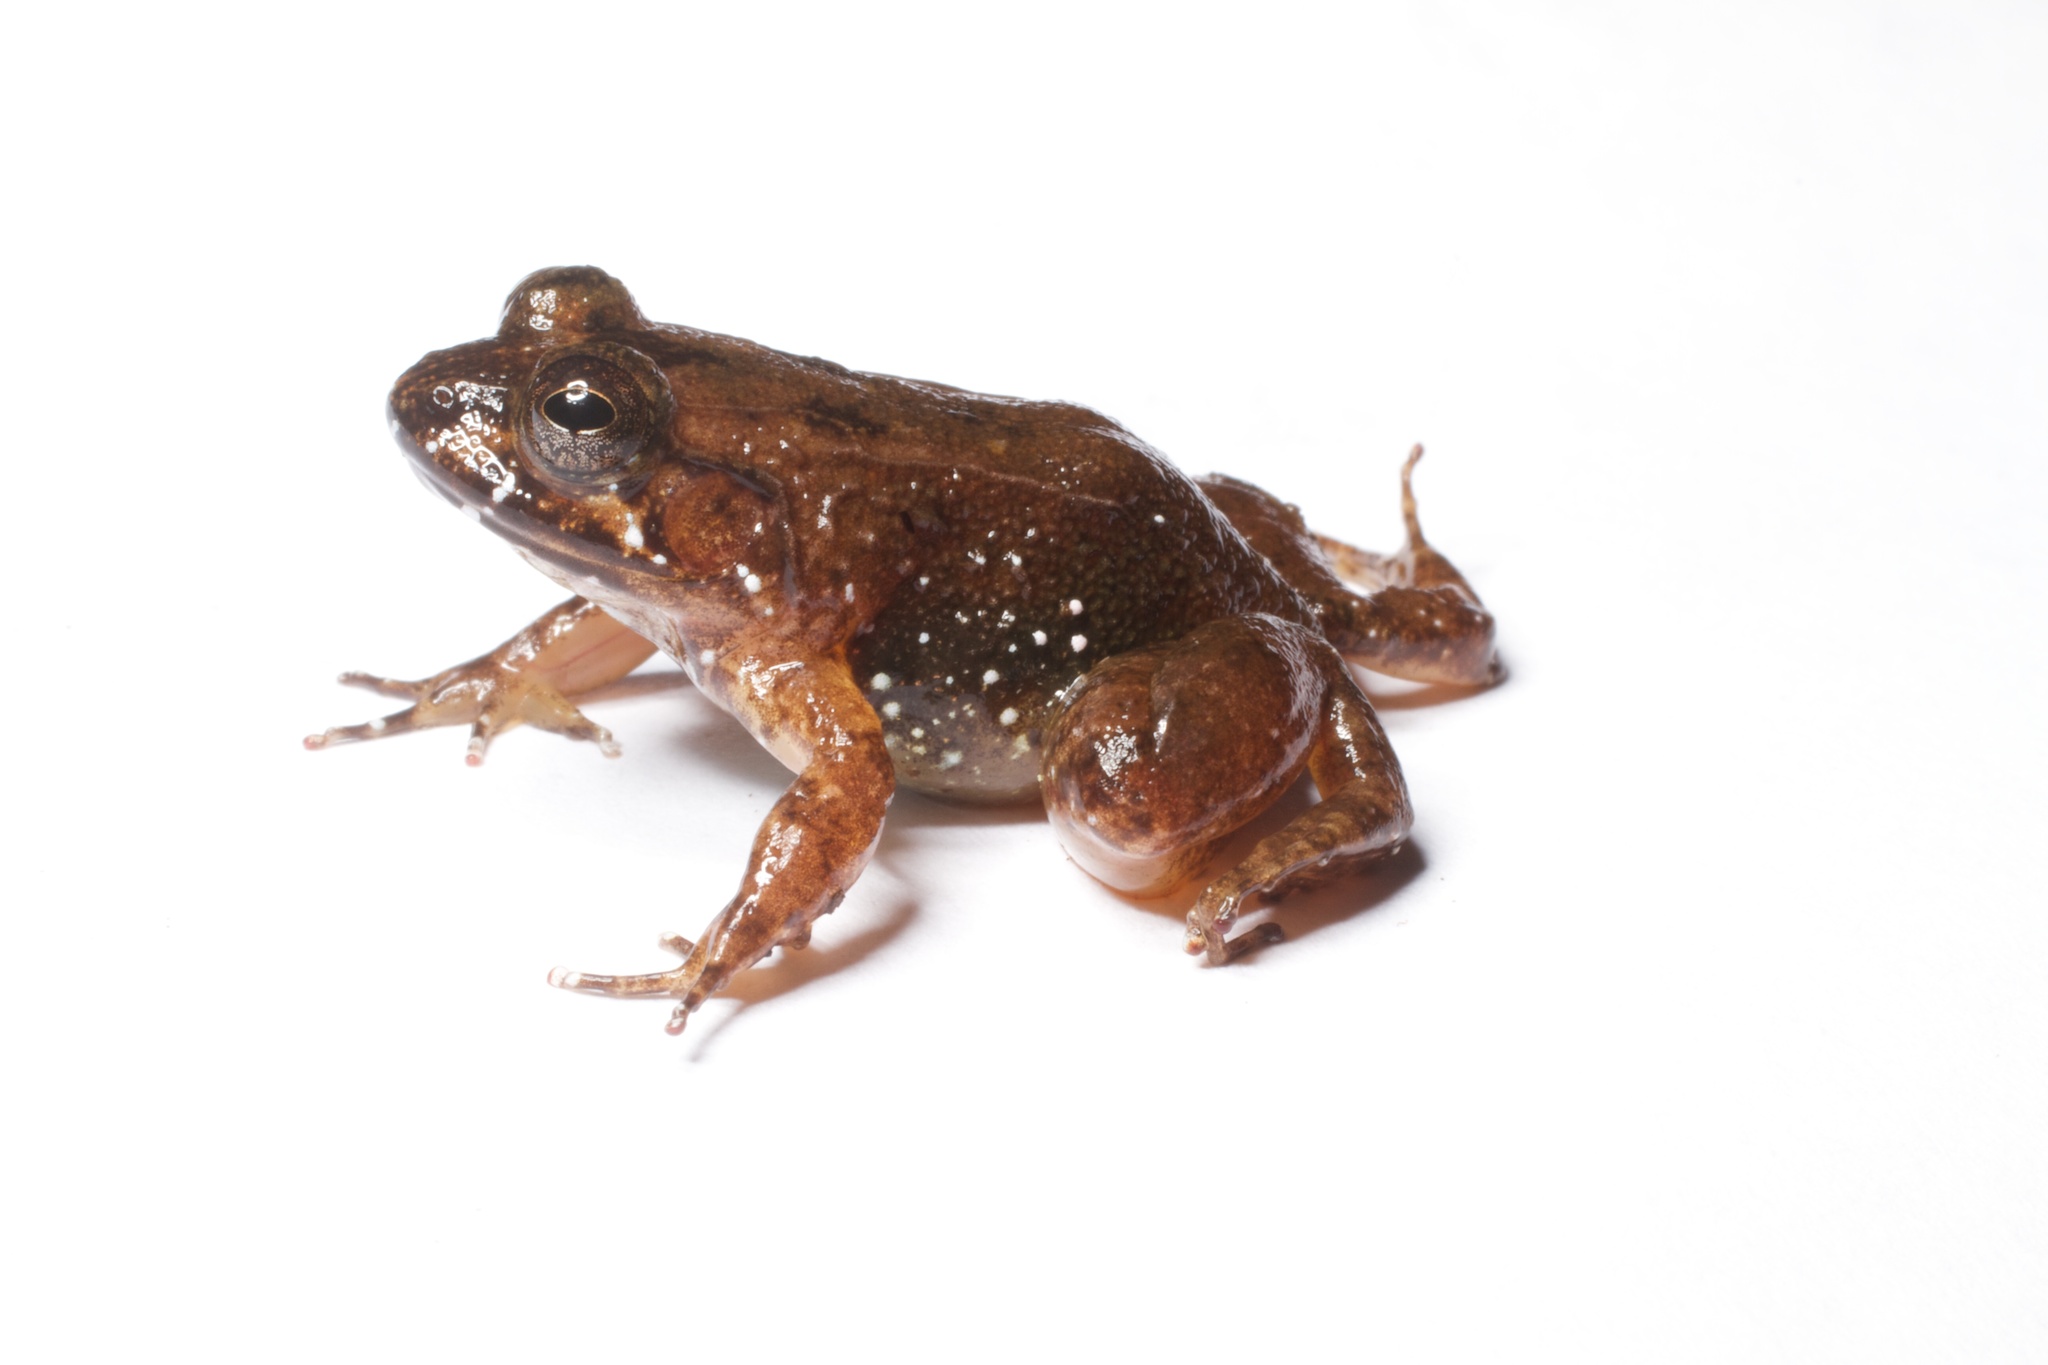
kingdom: Animalia
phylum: Chordata
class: Amphibia
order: Anura
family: Mantellidae
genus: Mantidactylus
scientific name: Mantidactylus biporus
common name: Two-pore madagascar frog
